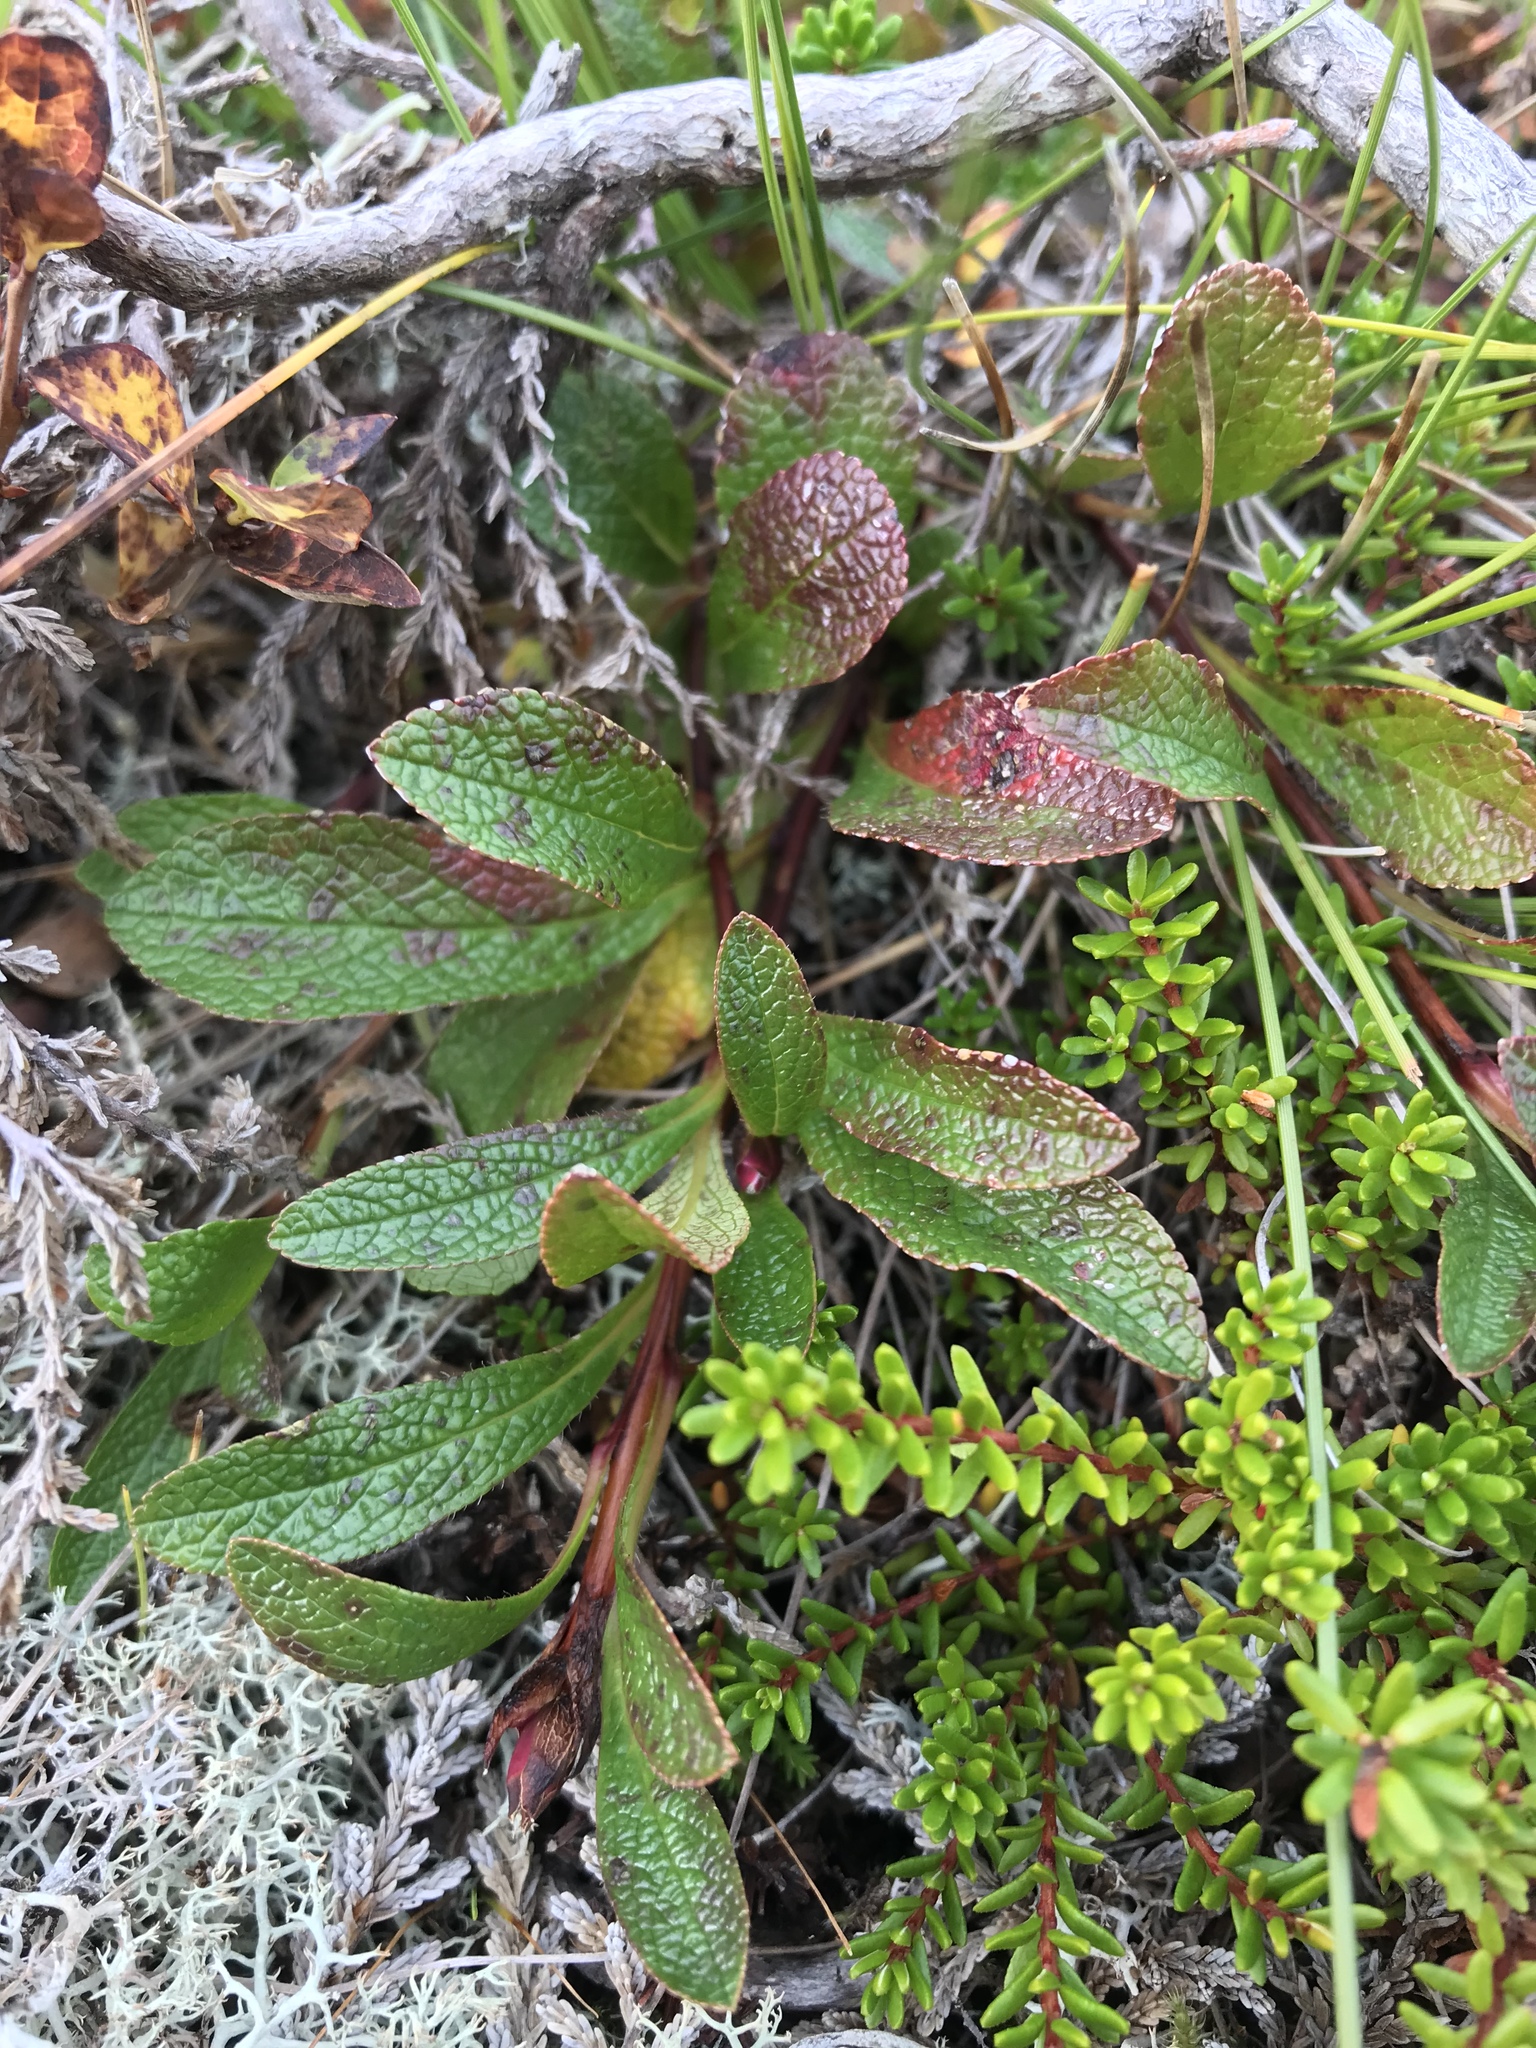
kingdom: Plantae
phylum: Tracheophyta
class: Magnoliopsida
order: Ericales
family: Ericaceae
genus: Arctostaphylos
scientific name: Arctostaphylos alpinus
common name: Alpine bearberry
